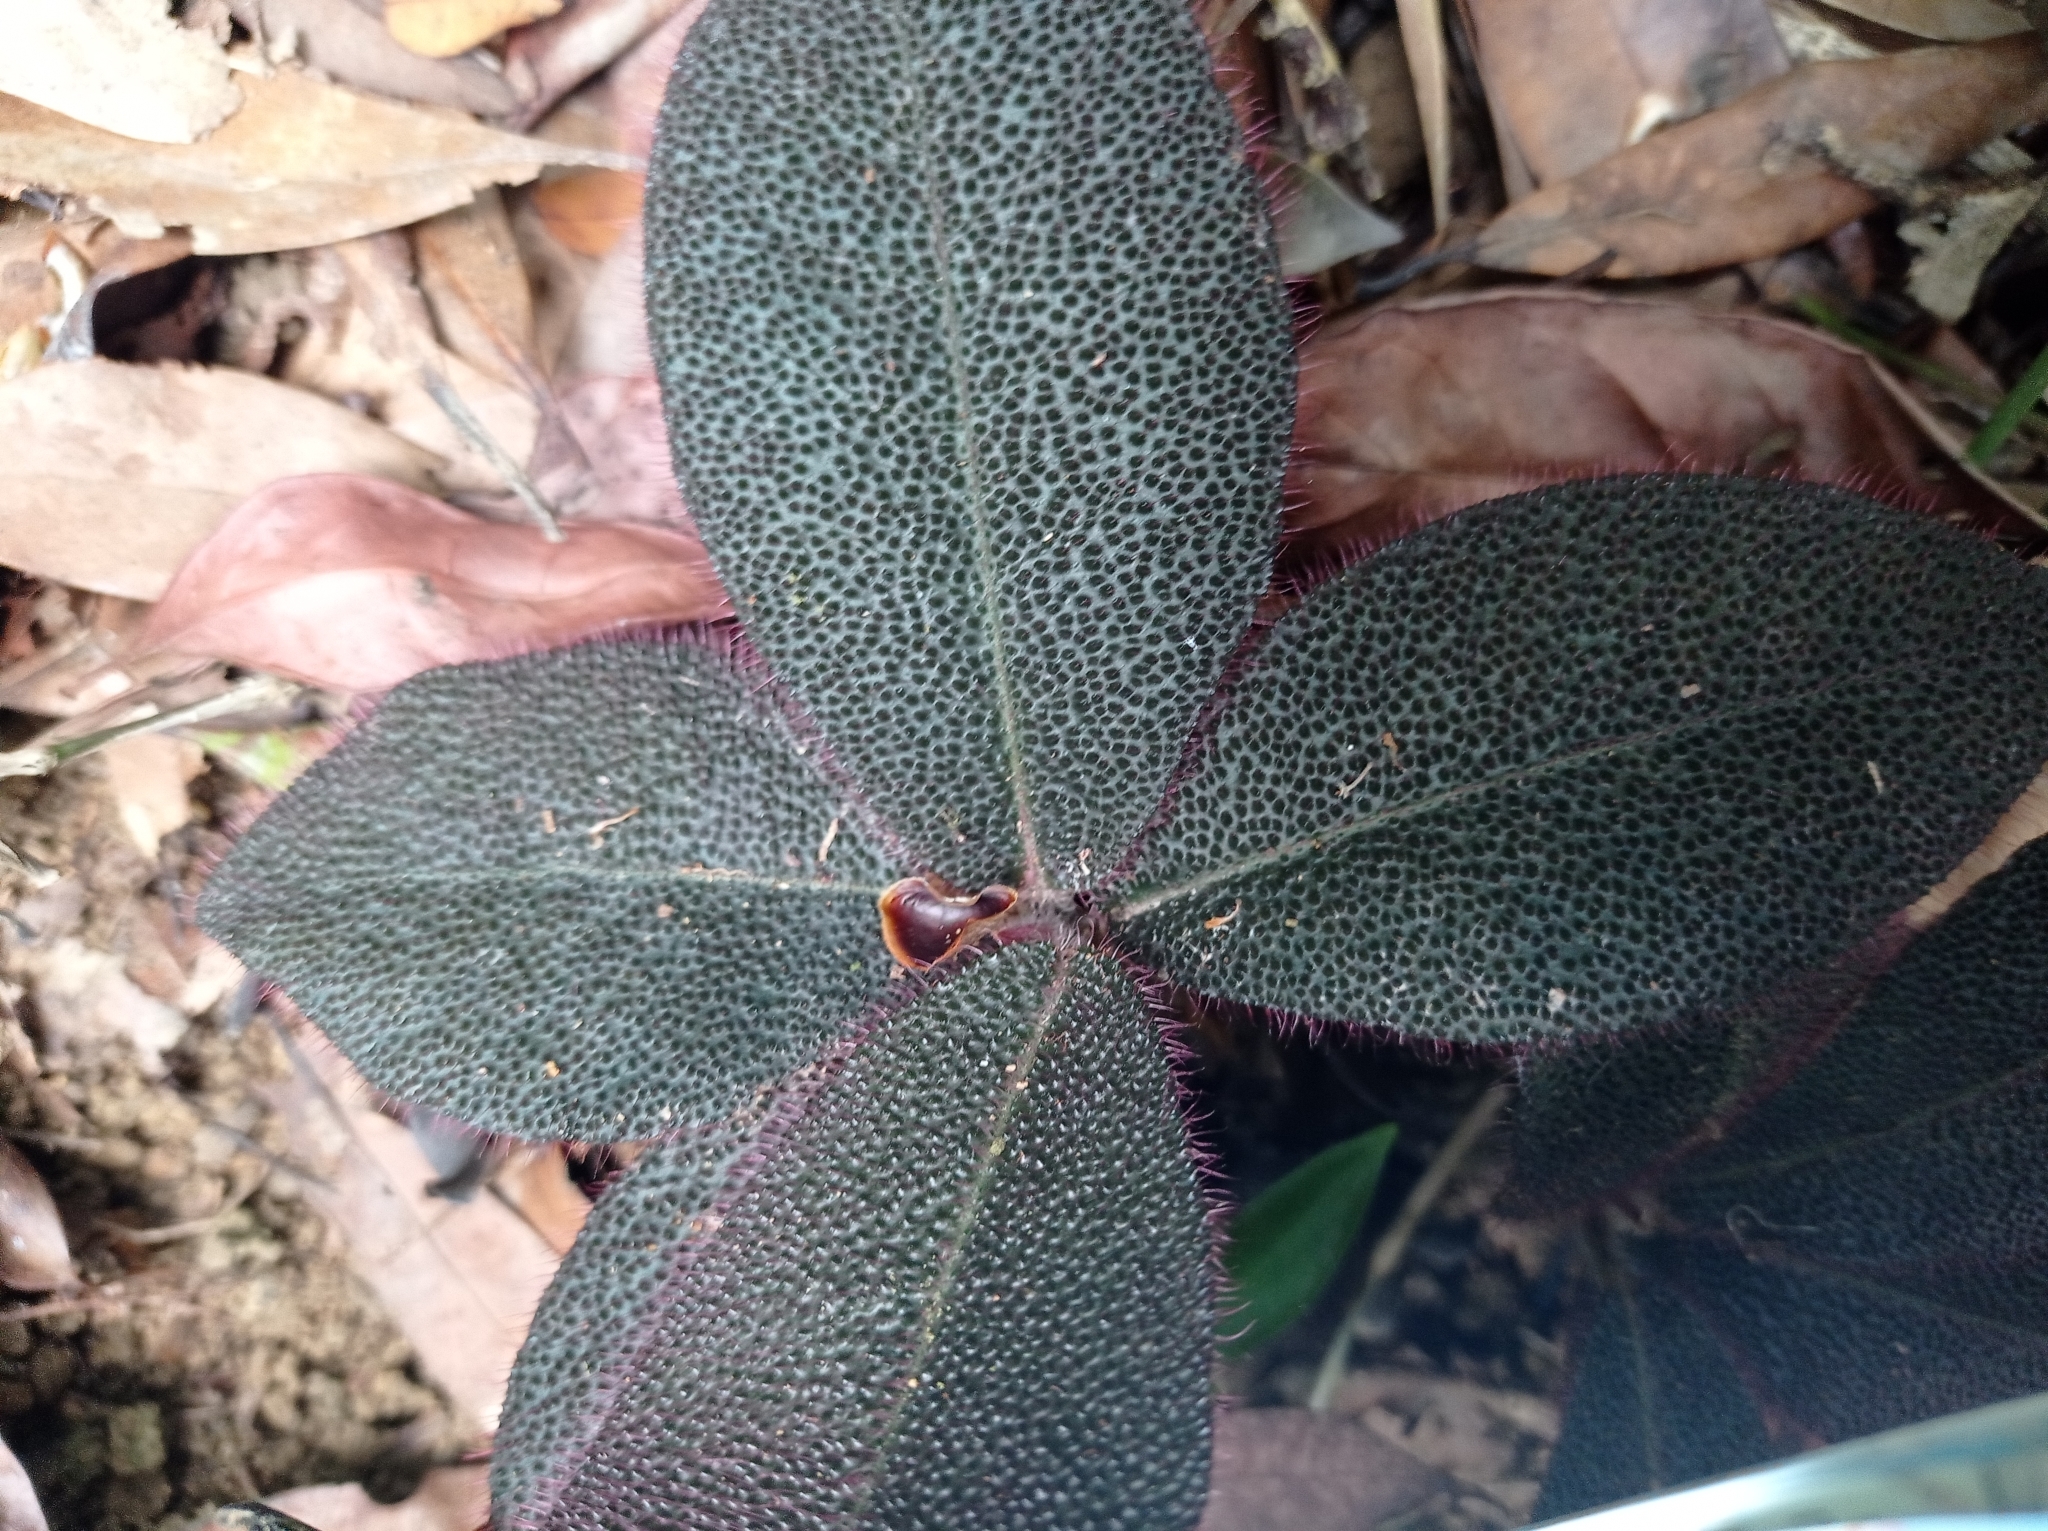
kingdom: Plantae
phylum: Tracheophyta
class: Magnoliopsida
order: Ericales
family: Primulaceae
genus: Ardisia
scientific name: Ardisia mamillata
